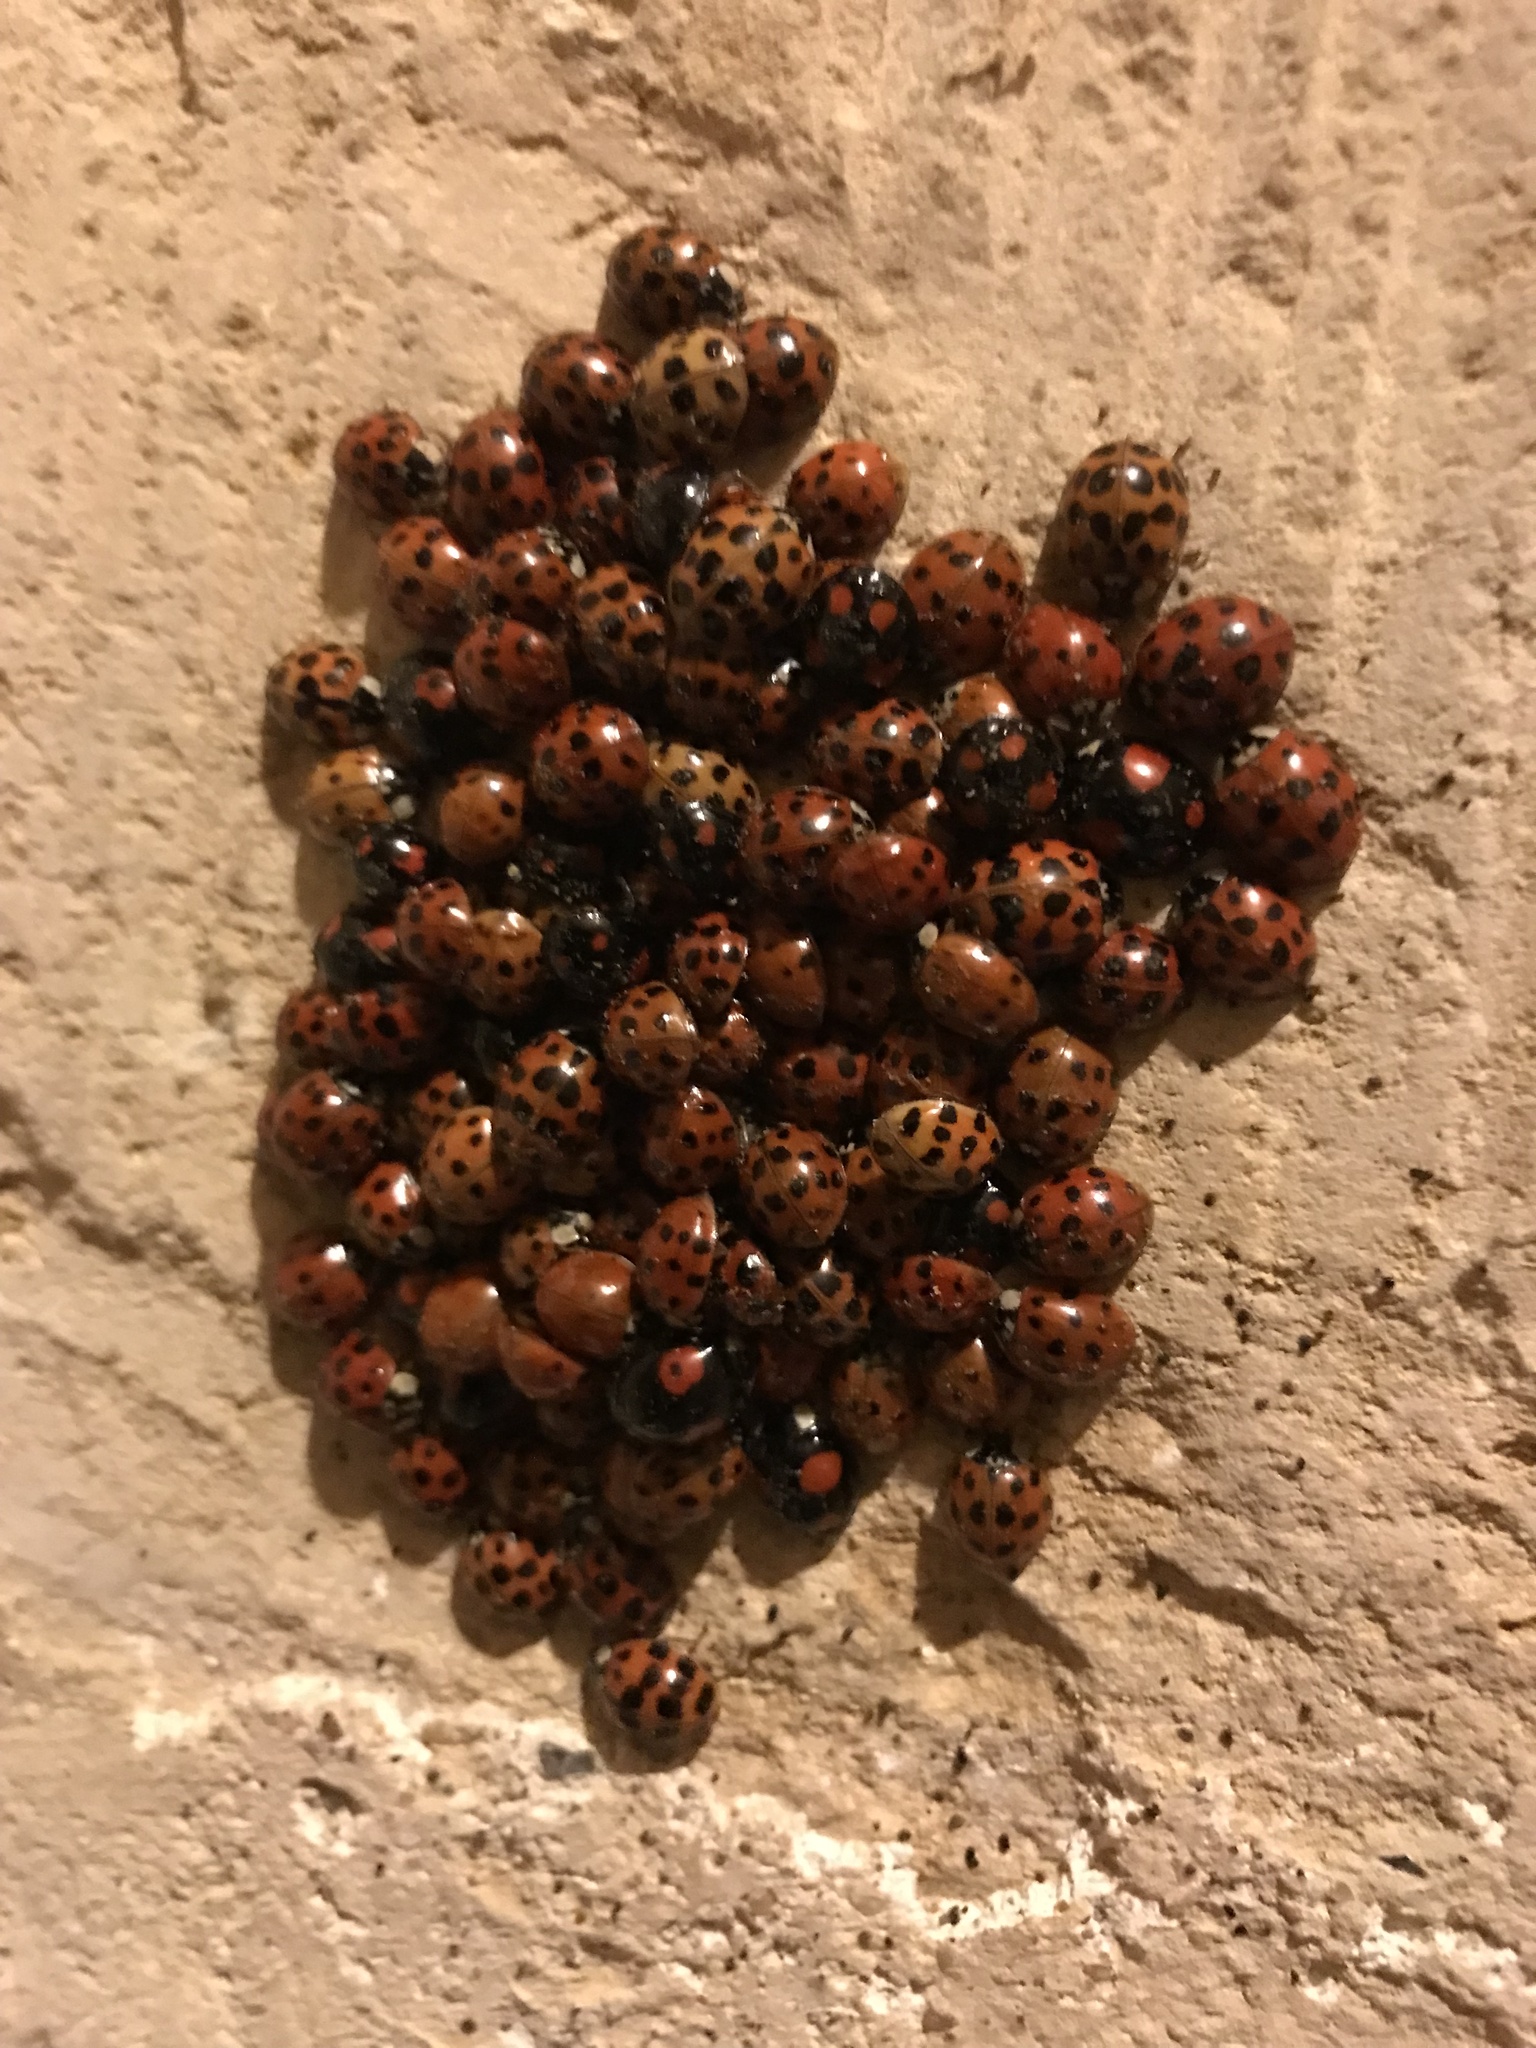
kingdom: Animalia
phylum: Arthropoda
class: Insecta
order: Coleoptera
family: Coccinellidae
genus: Harmonia
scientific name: Harmonia axyridis
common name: Harlequin ladybird
